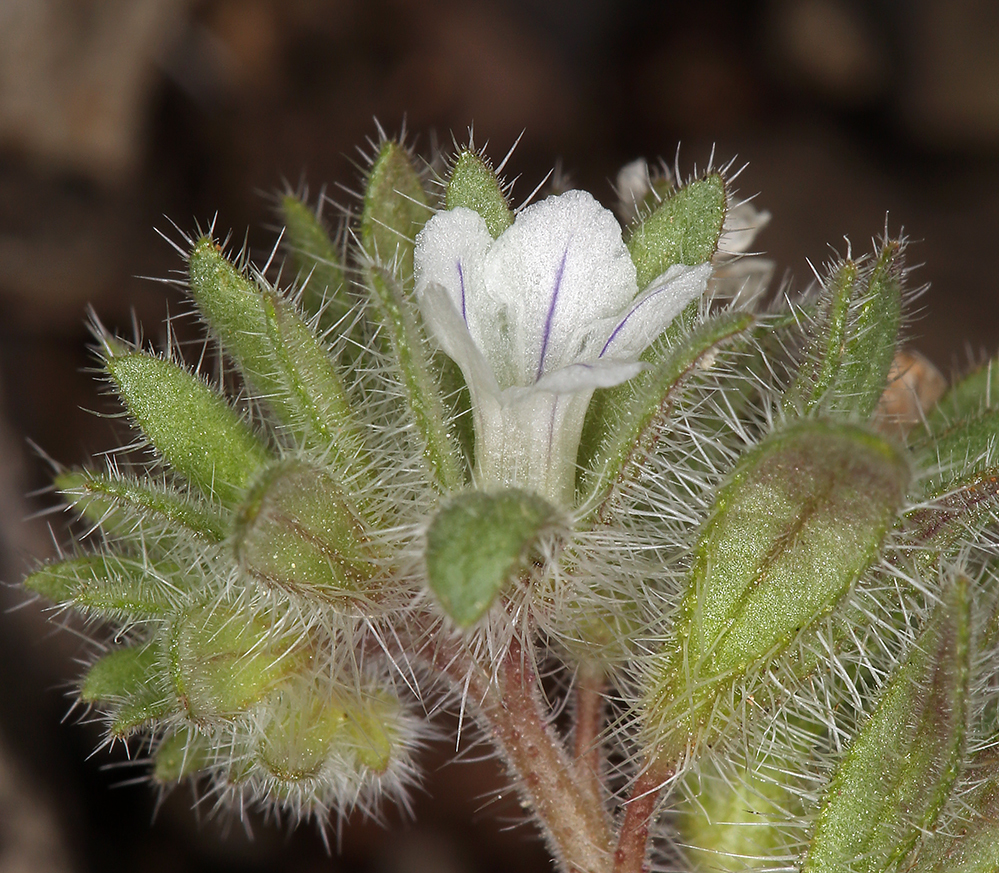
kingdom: Plantae
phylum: Tracheophyta
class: Magnoliopsida
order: Boraginales
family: Hydrophyllaceae
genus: Phacelia
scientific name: Phacelia phacelioides
